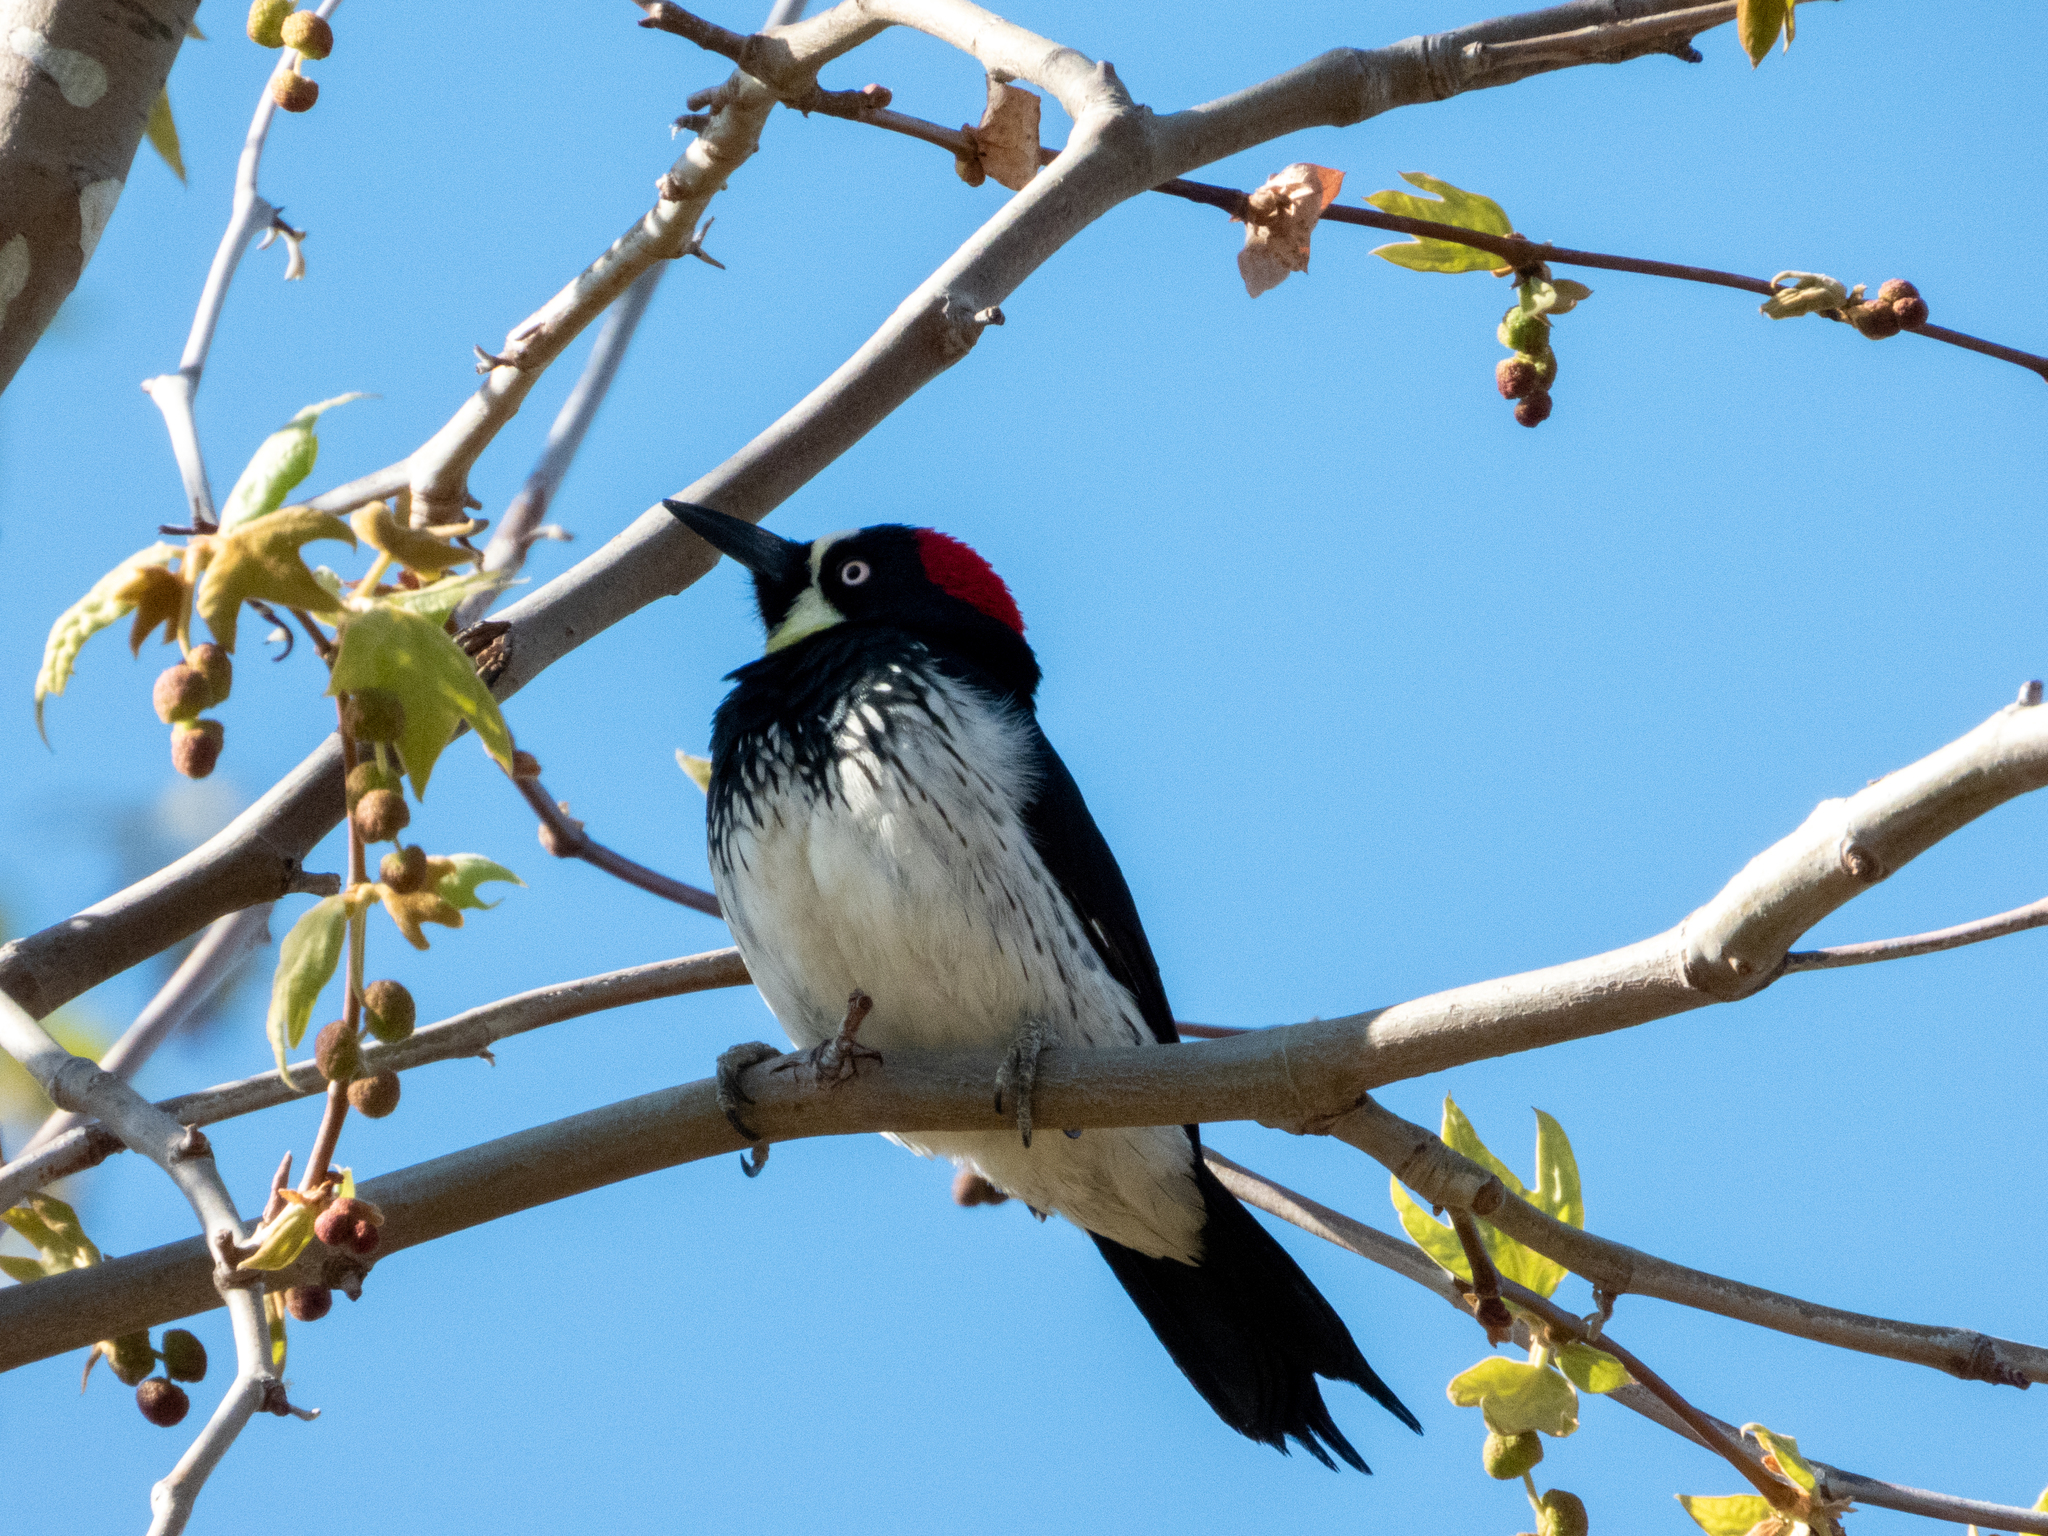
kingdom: Animalia
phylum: Chordata
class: Aves
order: Piciformes
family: Picidae
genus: Melanerpes
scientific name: Melanerpes formicivorus
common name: Acorn woodpecker
